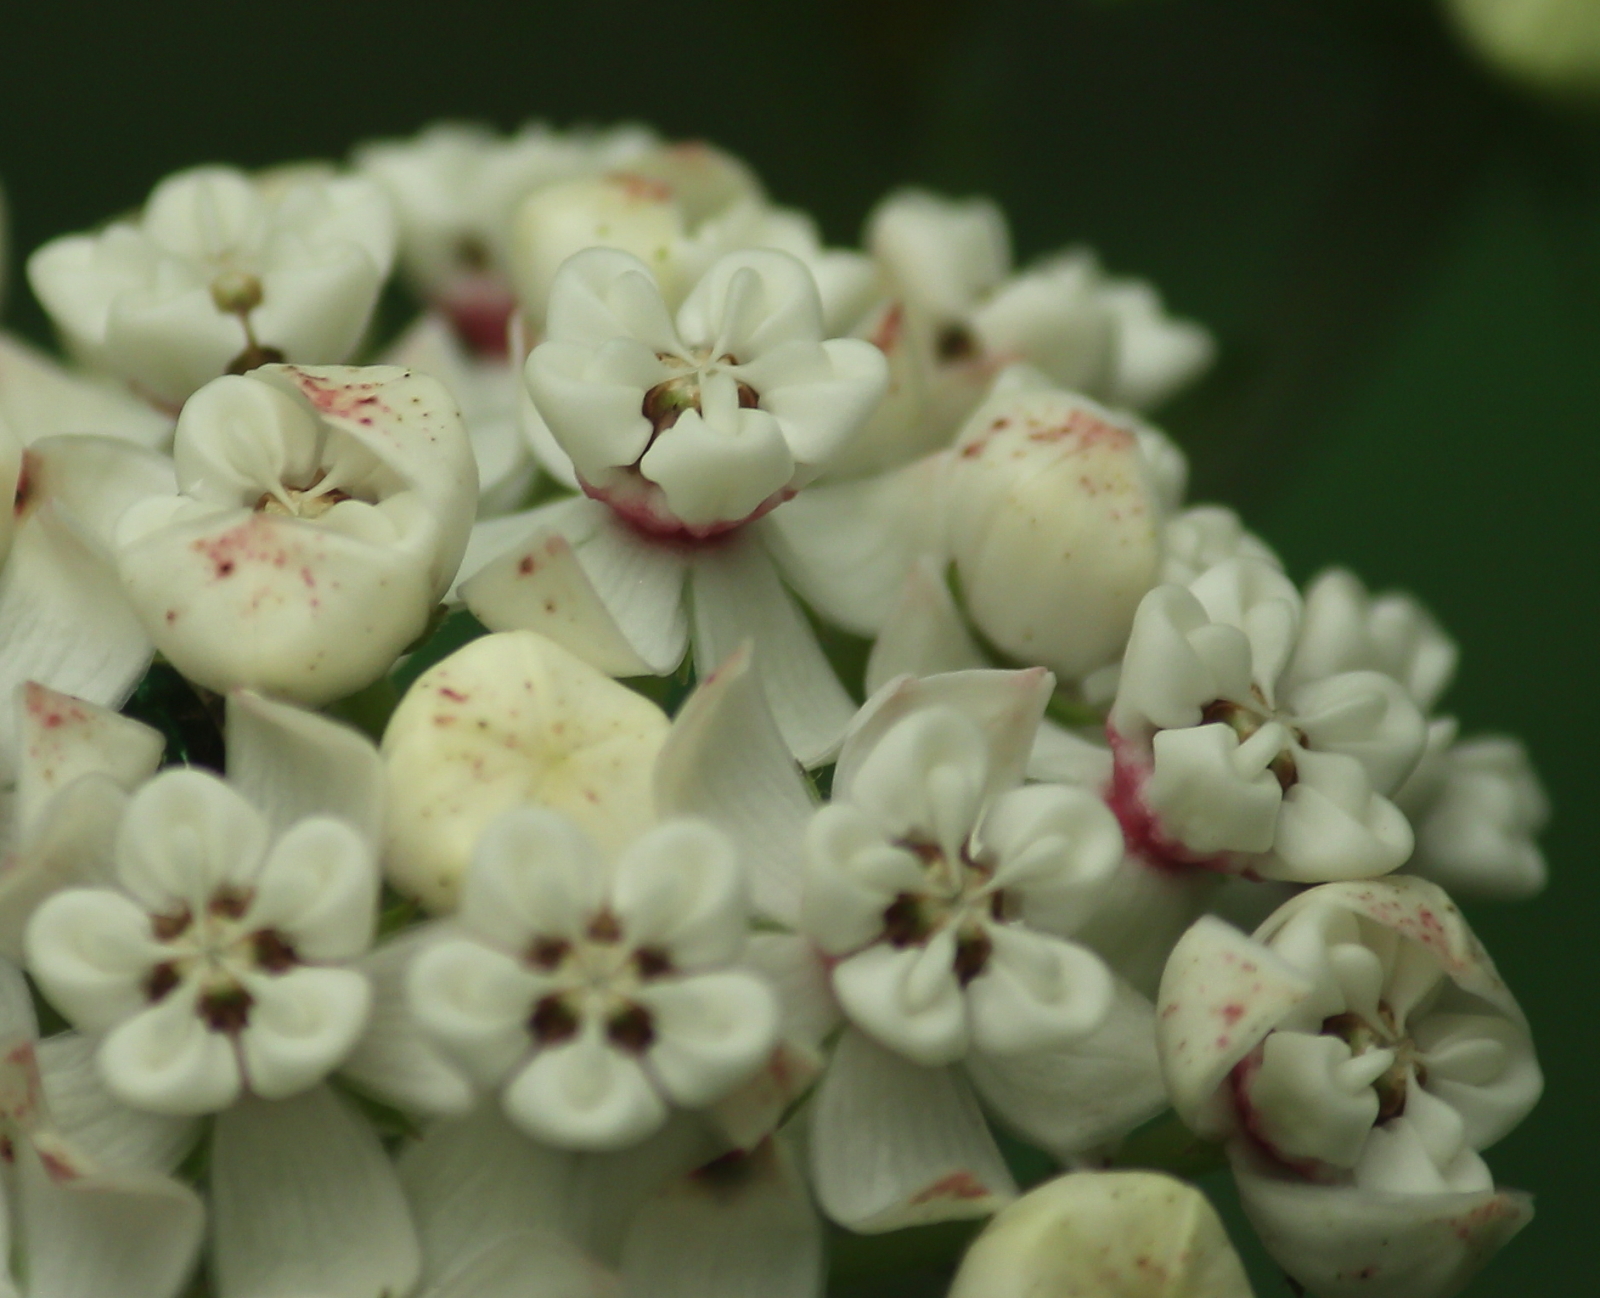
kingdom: Plantae
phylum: Tracheophyta
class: Magnoliopsida
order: Gentianales
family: Apocynaceae
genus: Asclepias
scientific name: Asclepias variegata
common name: Variegated milkweed
